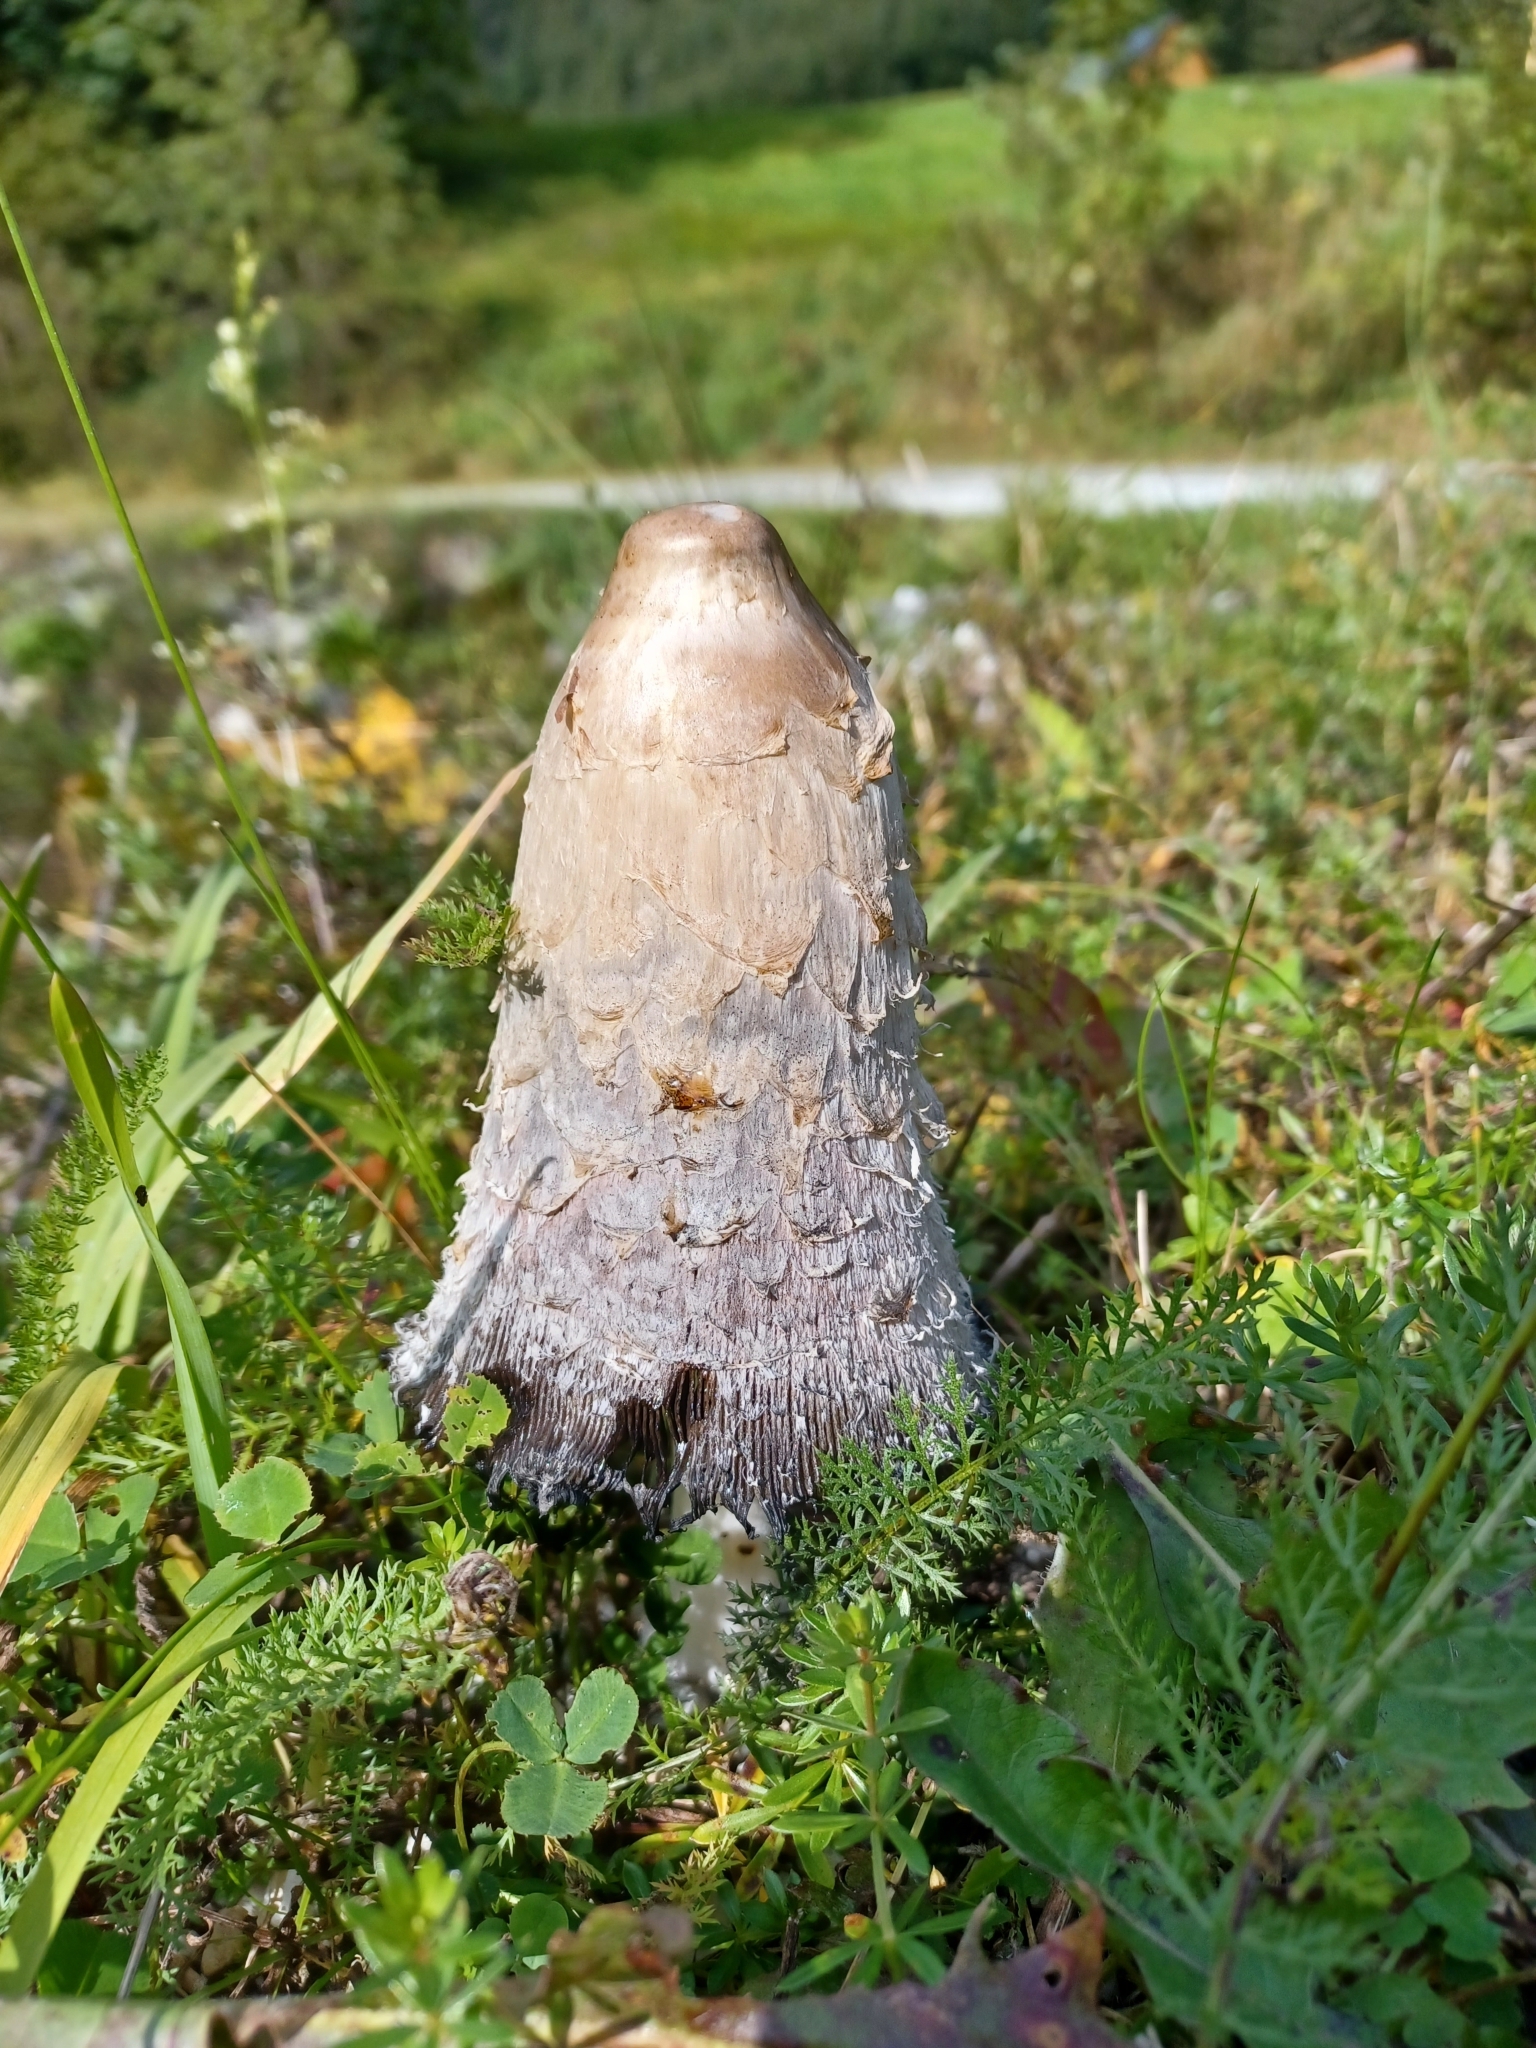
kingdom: Fungi
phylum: Basidiomycota
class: Agaricomycetes
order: Agaricales
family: Agaricaceae
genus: Coprinus
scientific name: Coprinus comatus
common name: Lawyer's wig
